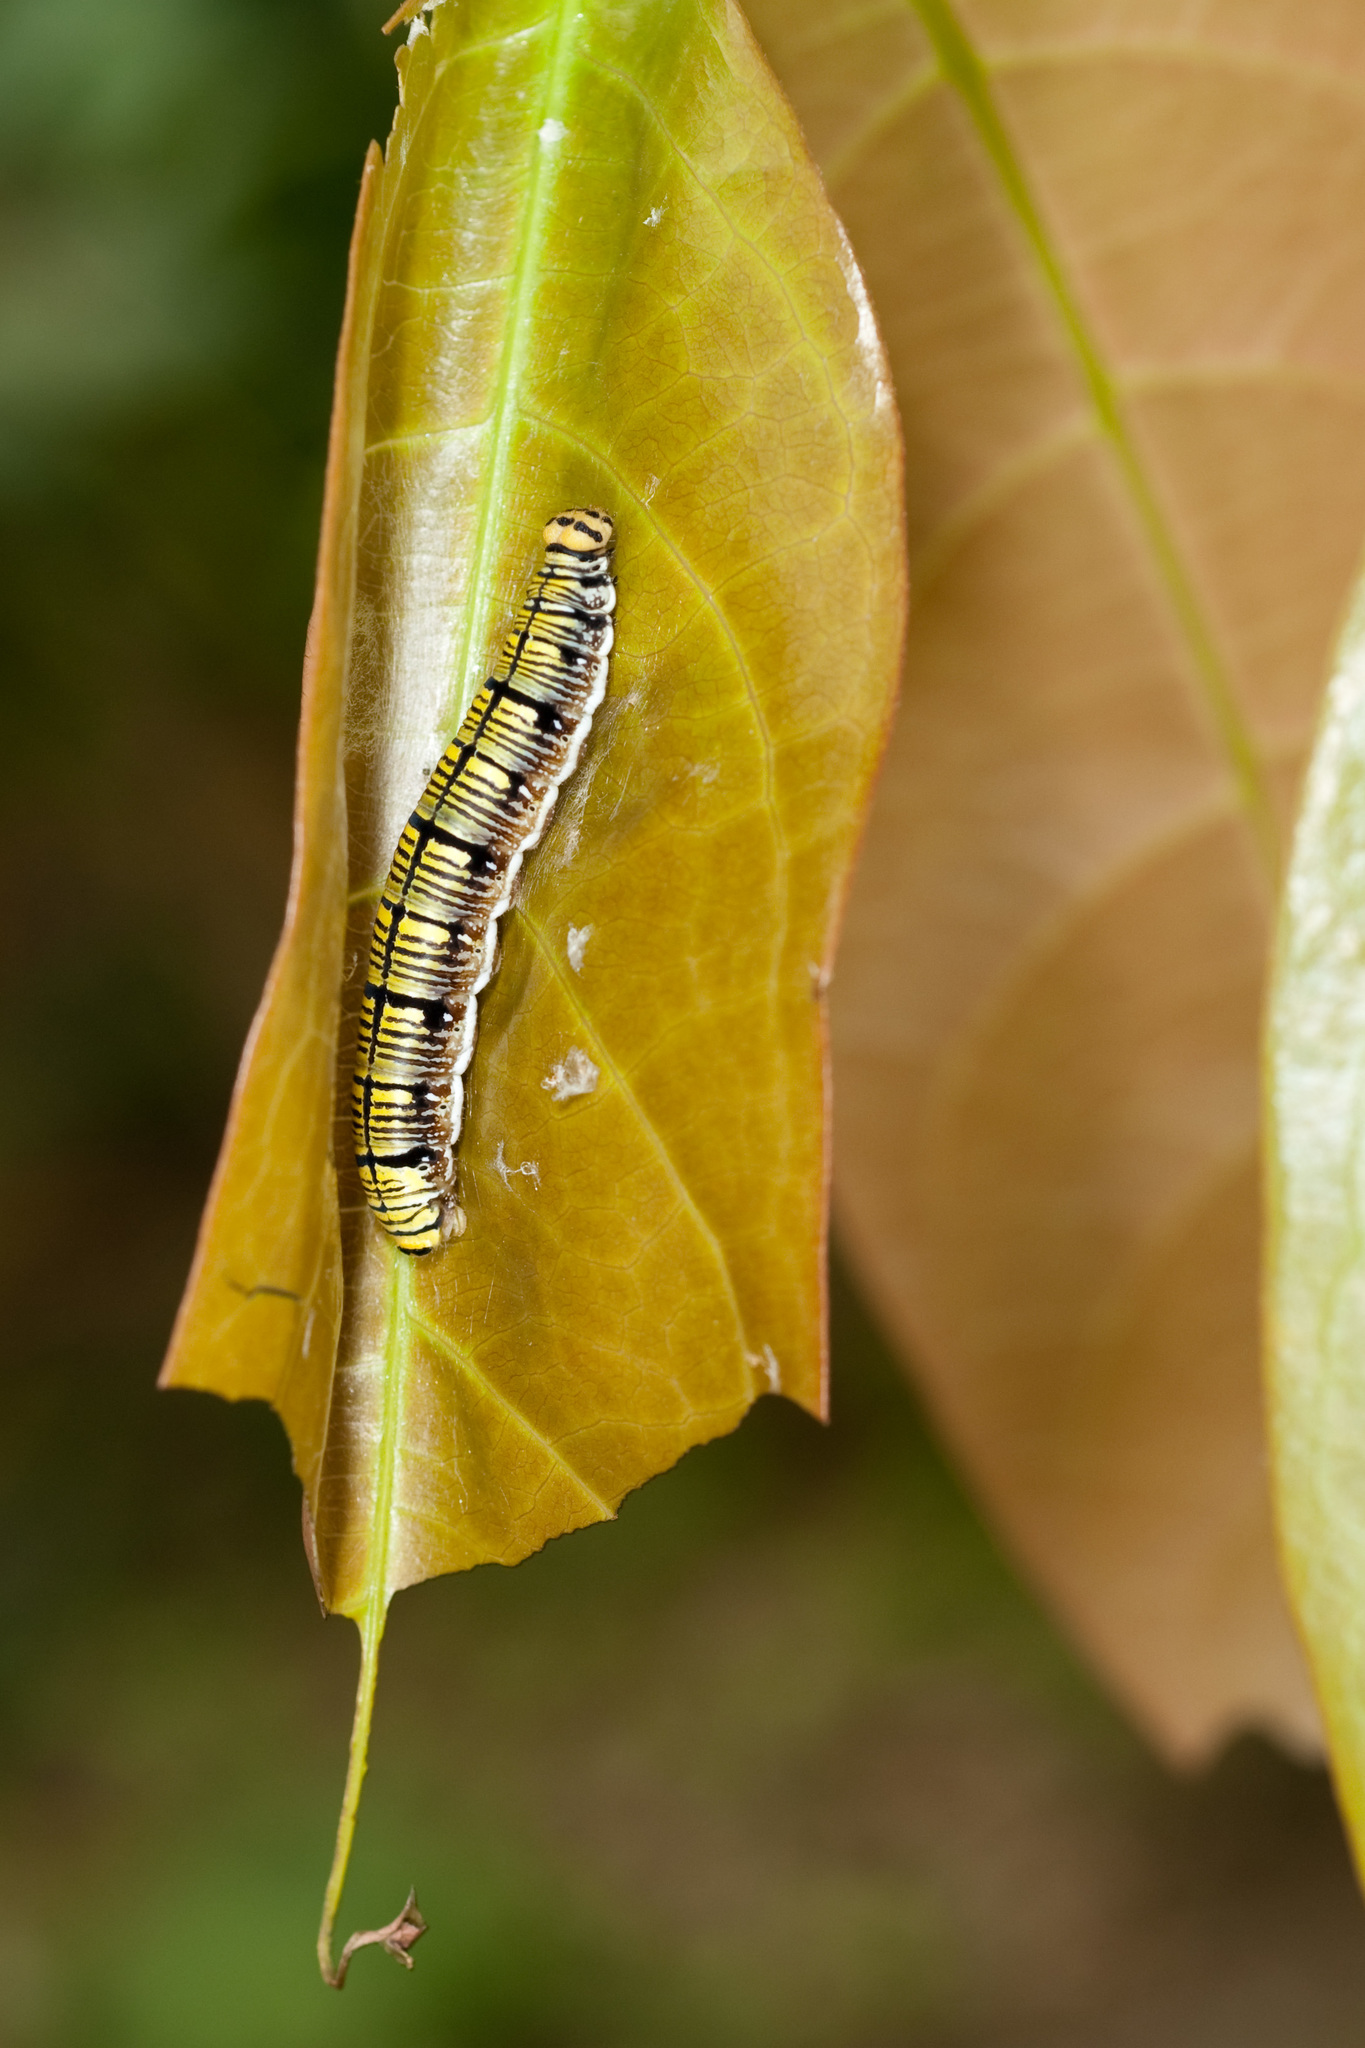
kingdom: Animalia
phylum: Arthropoda
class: Insecta
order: Lepidoptera
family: Hesperiidae
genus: Badamia
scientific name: Badamia exclamationis
